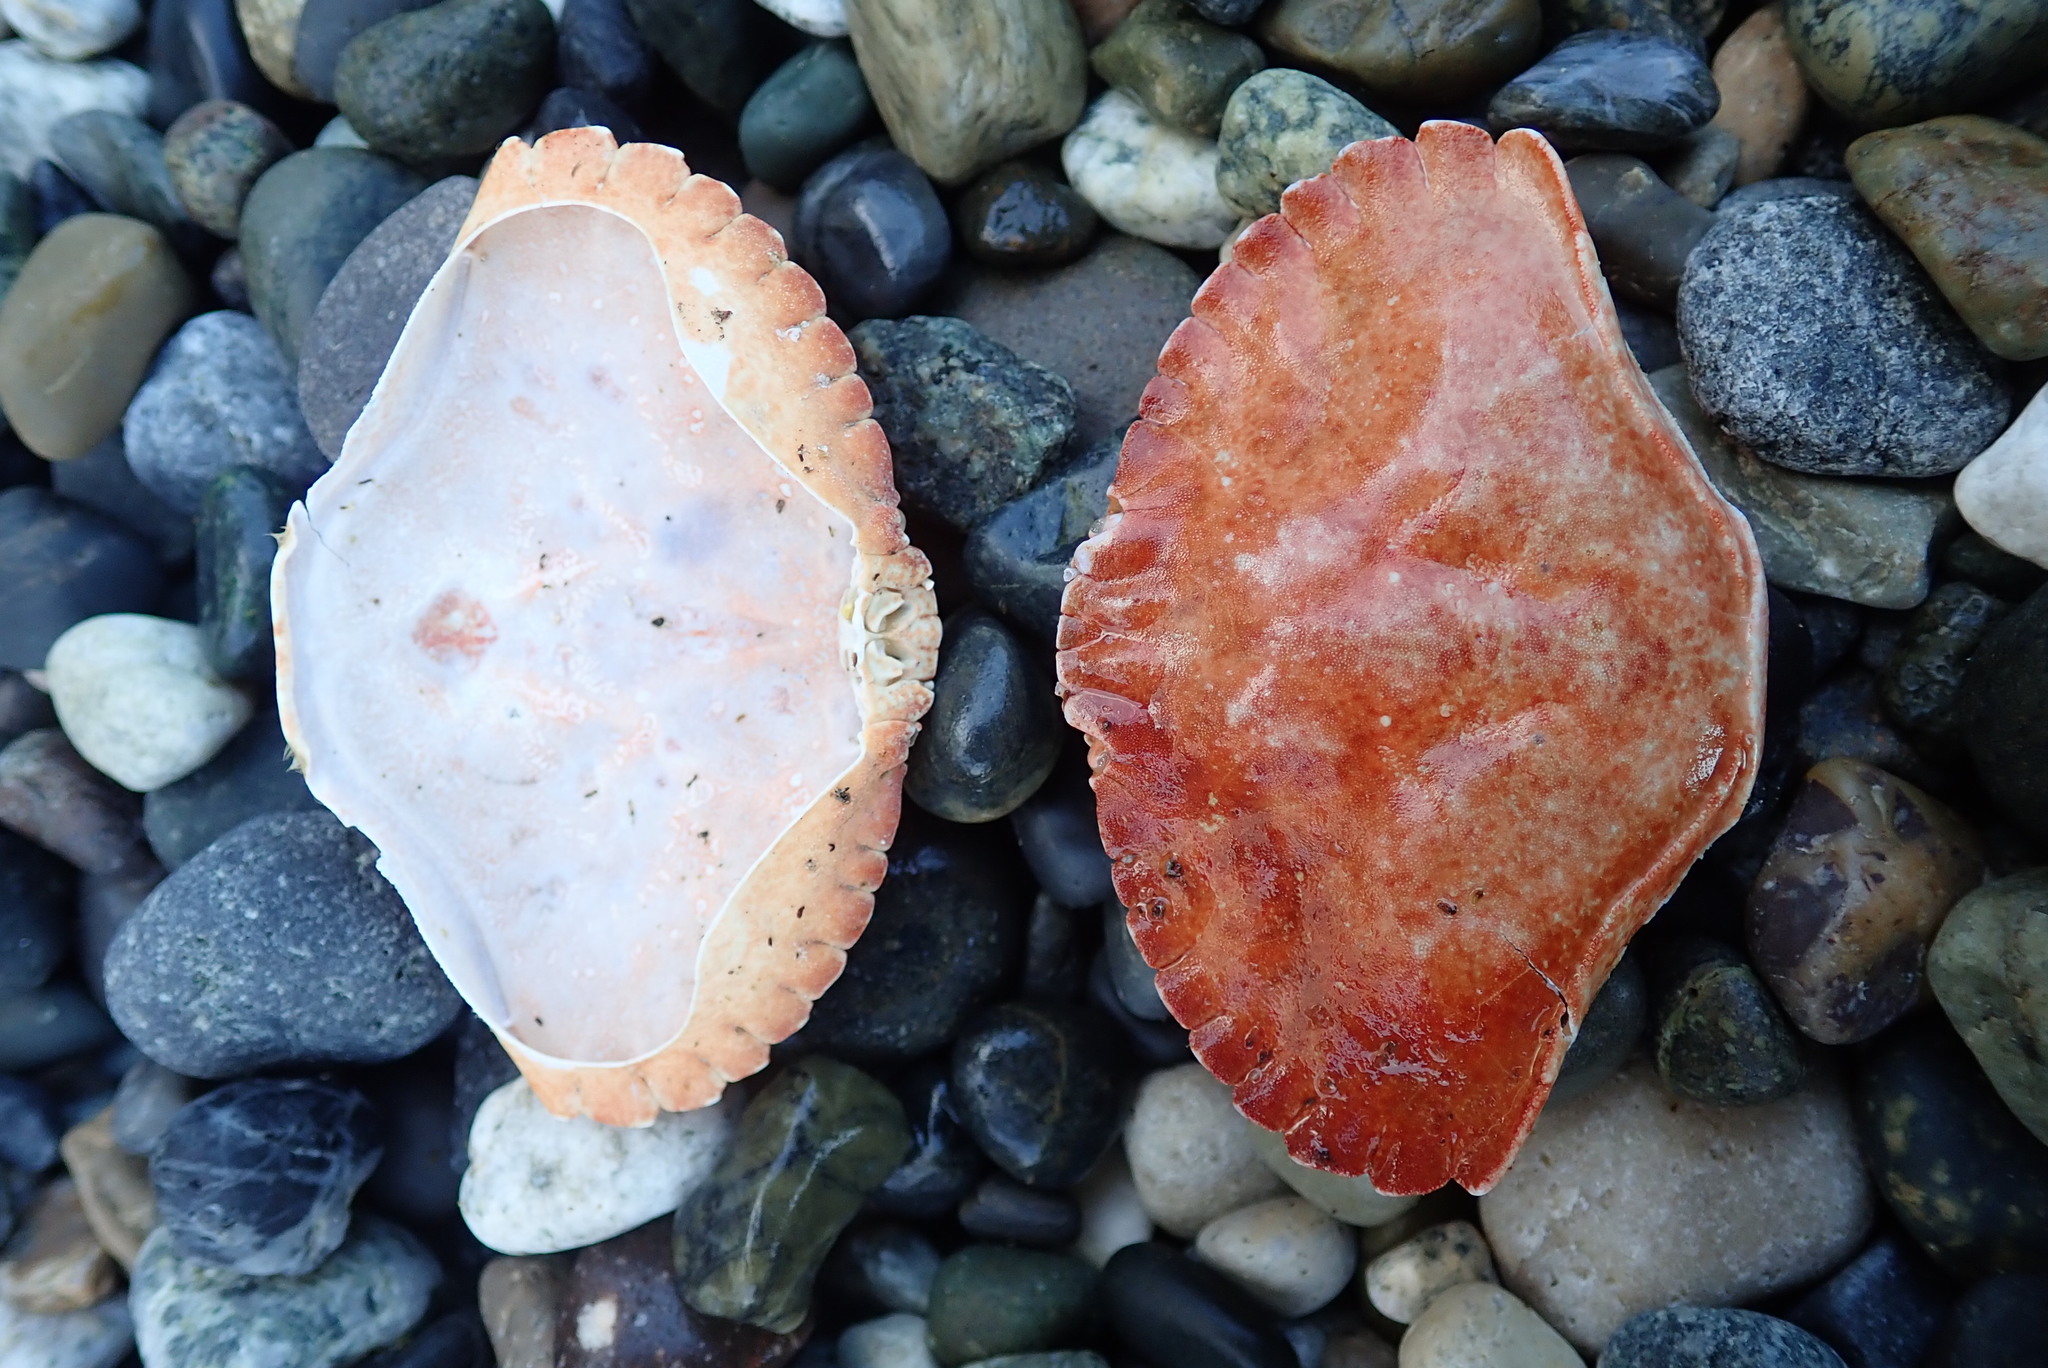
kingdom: Animalia
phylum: Arthropoda
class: Malacostraca
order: Decapoda
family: Cancridae
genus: Cancer
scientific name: Cancer productus
